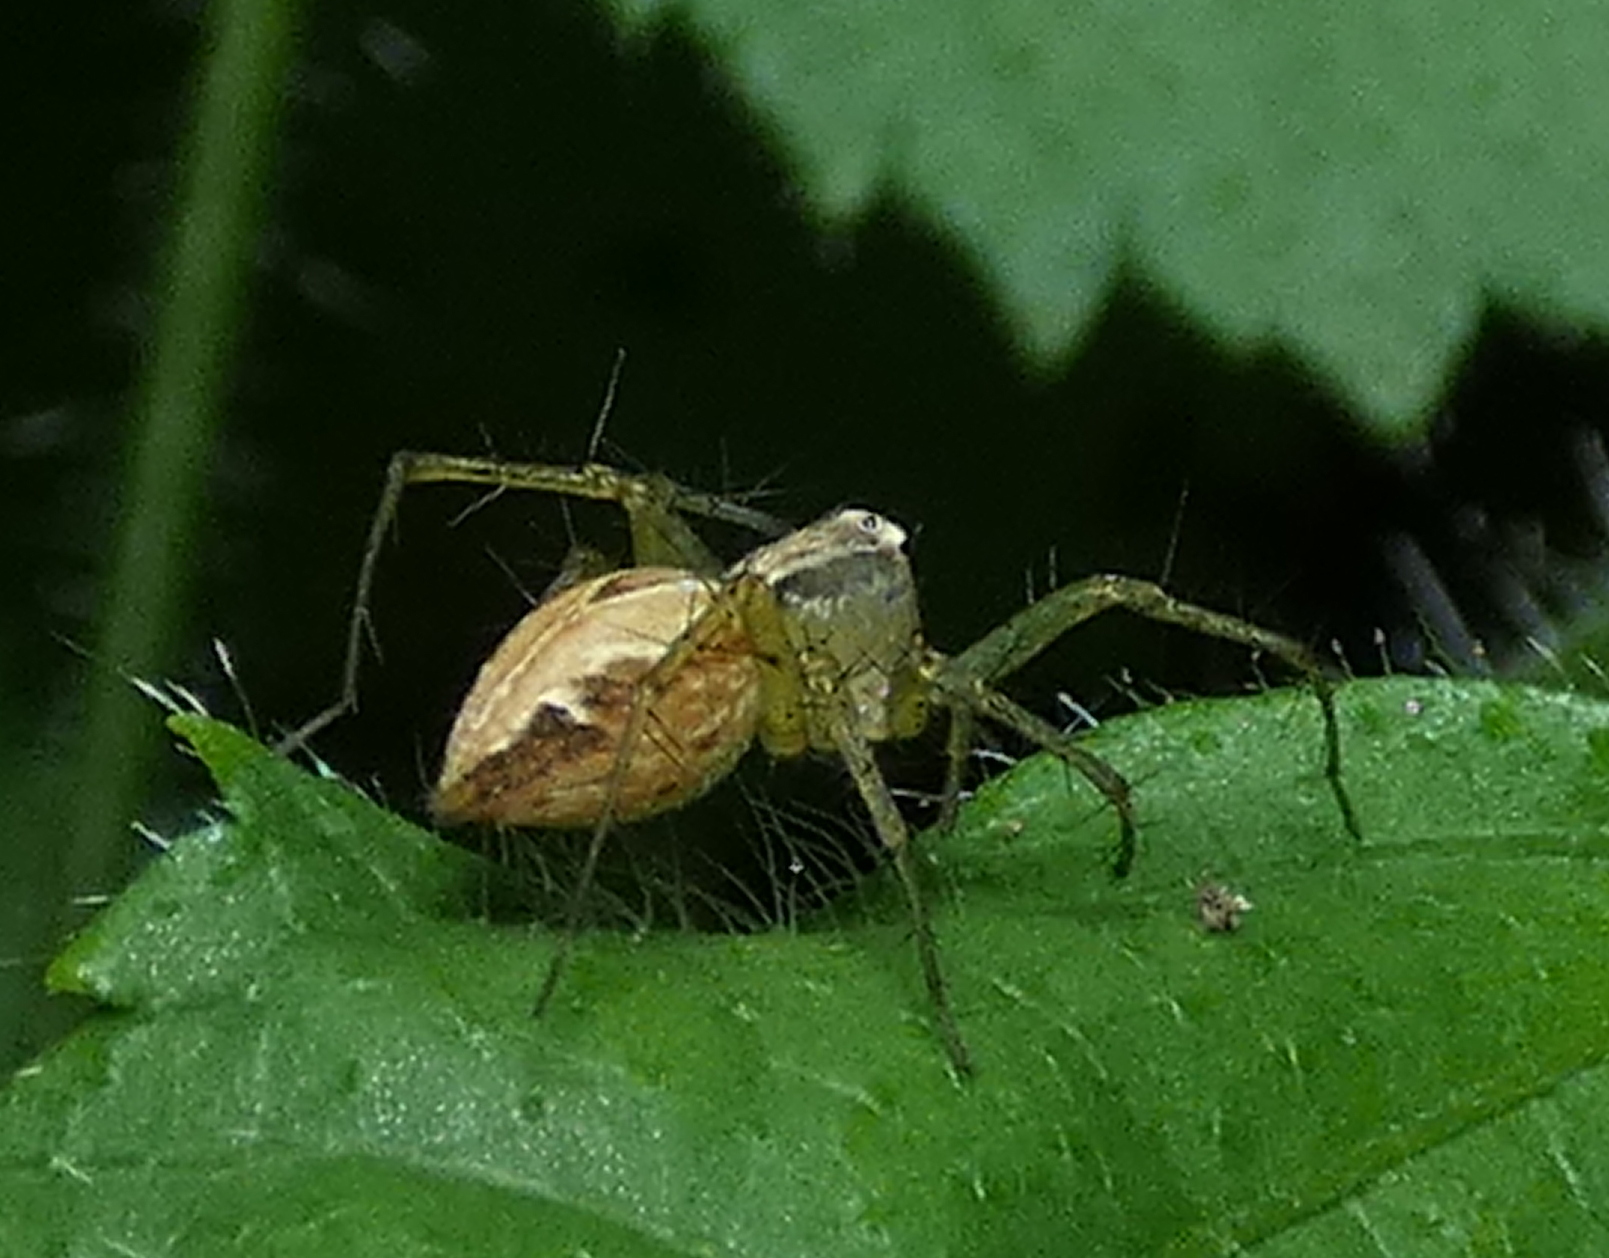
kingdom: Animalia
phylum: Arthropoda
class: Arachnida
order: Araneae
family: Oxyopidae
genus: Oxyopes
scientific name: Oxyopes salticus
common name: Lynx spiders
